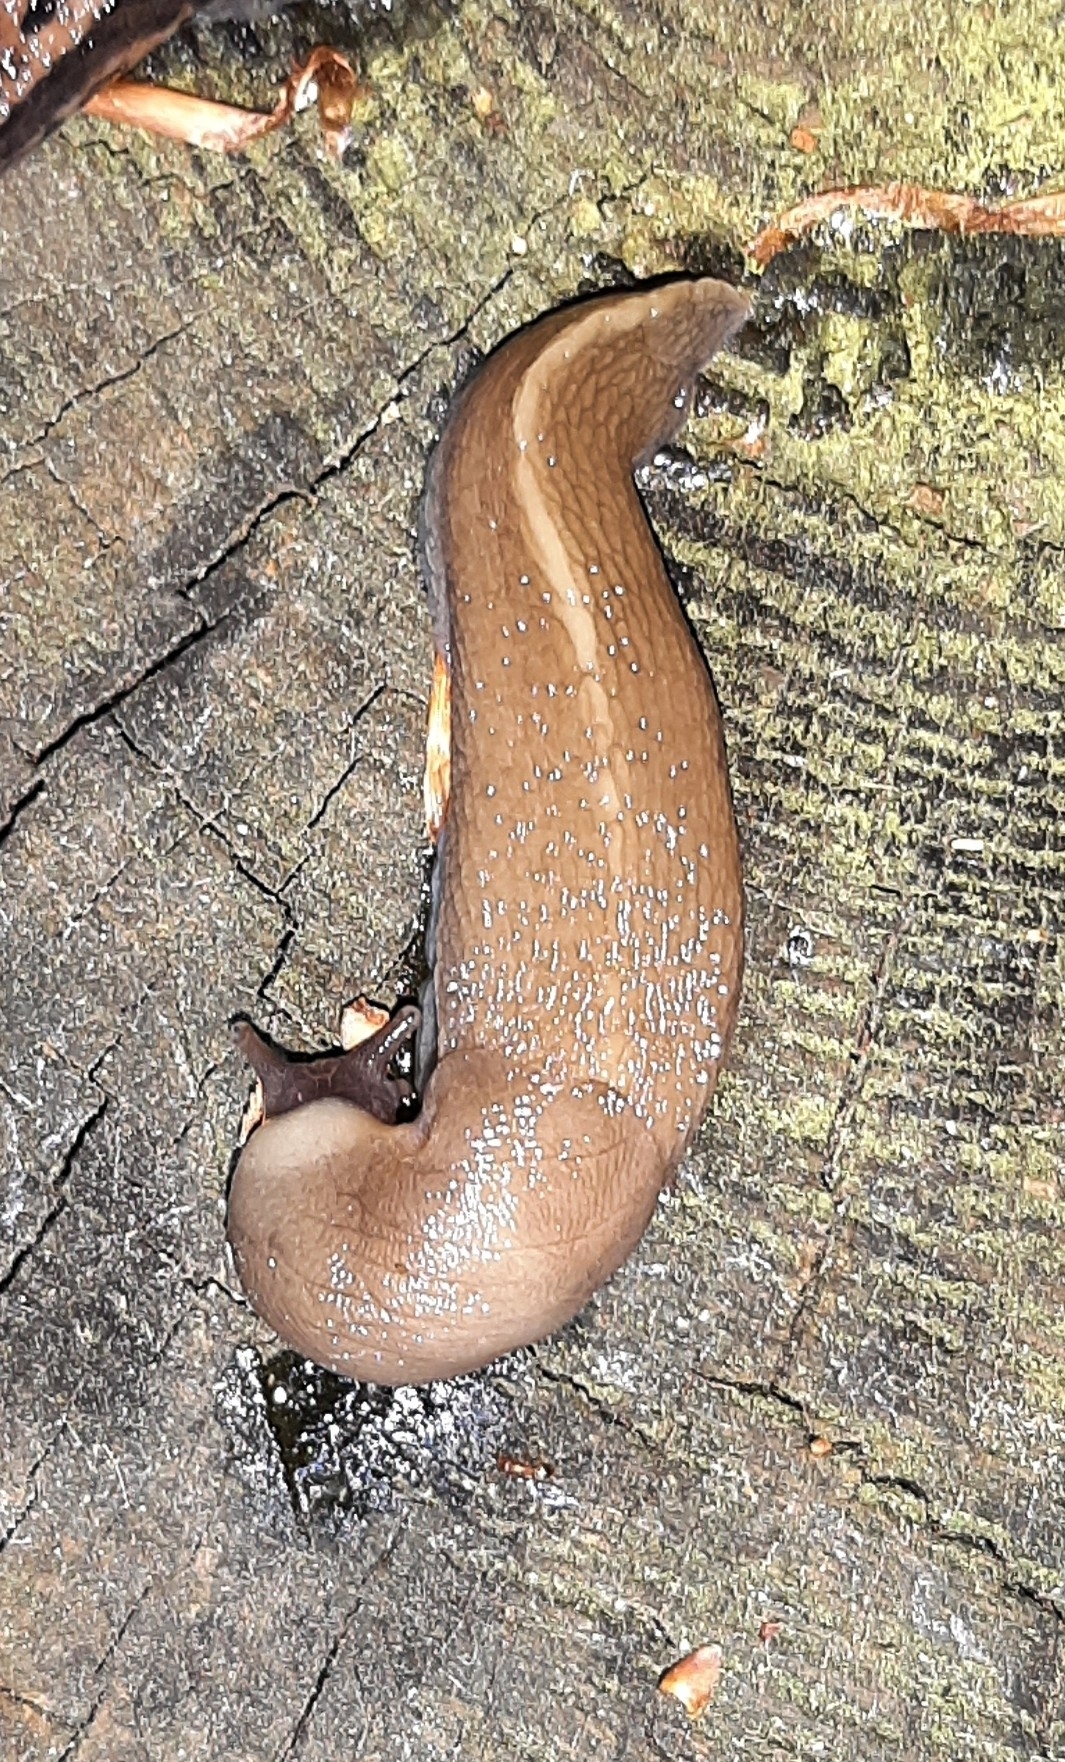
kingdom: Animalia
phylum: Mollusca
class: Gastropoda
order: Stylommatophora
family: Limacidae
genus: Limax
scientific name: Limax cinereoniger
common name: Ash-black slug
